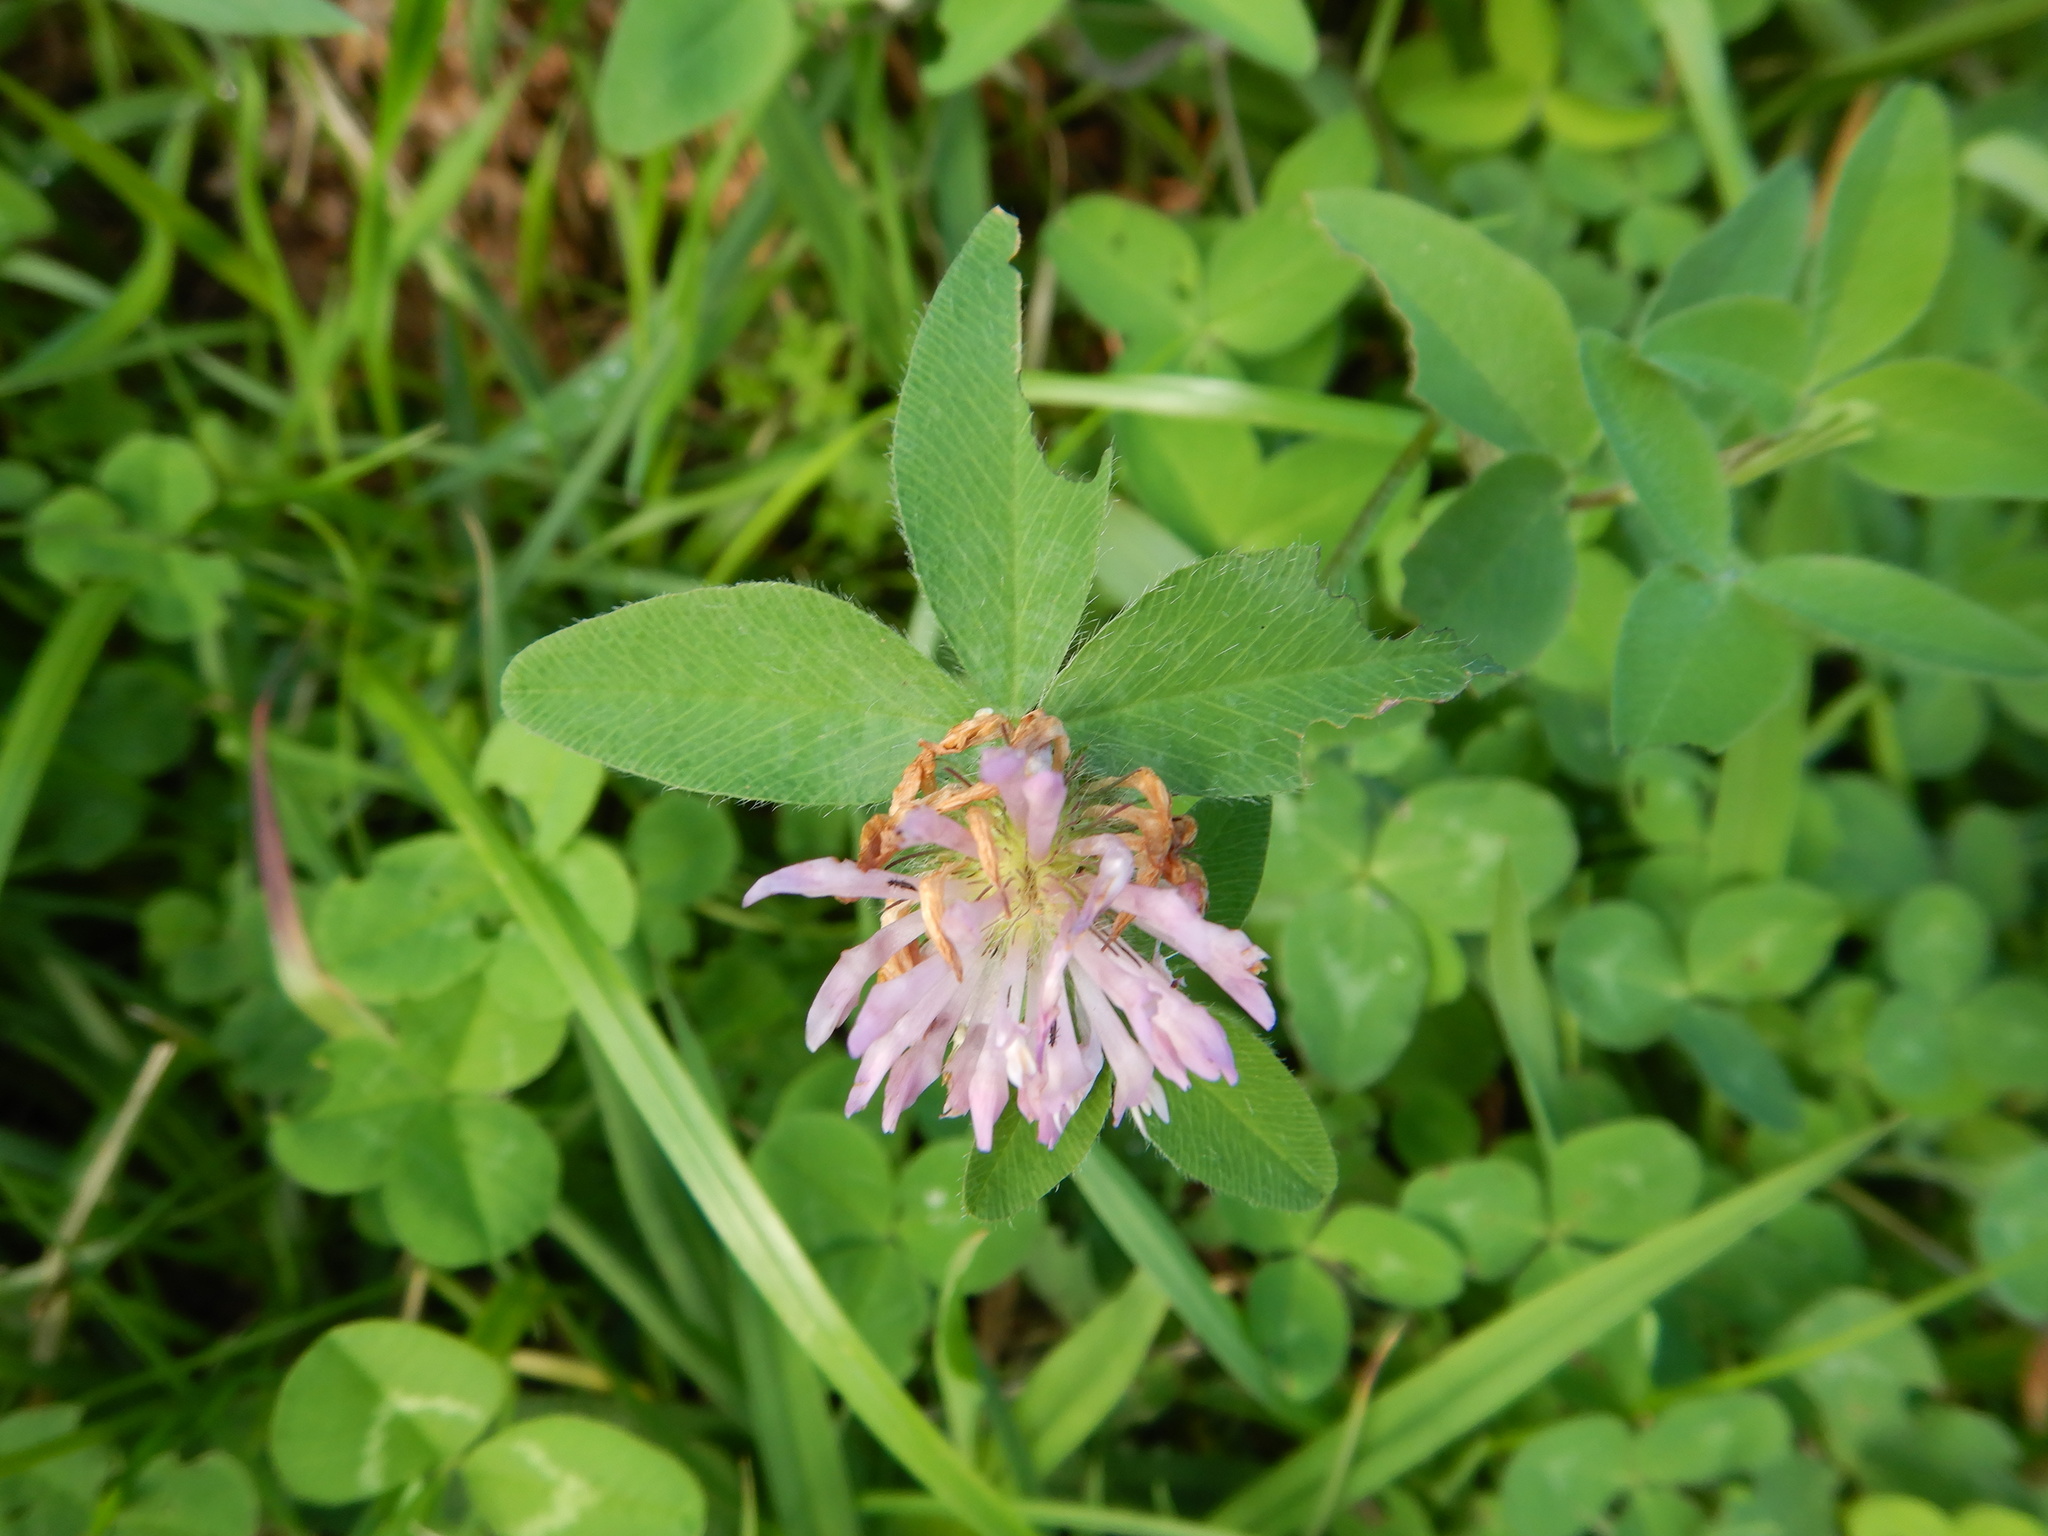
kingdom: Plantae
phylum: Tracheophyta
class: Magnoliopsida
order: Fabales
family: Fabaceae
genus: Trifolium
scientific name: Trifolium pratense
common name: Red clover
